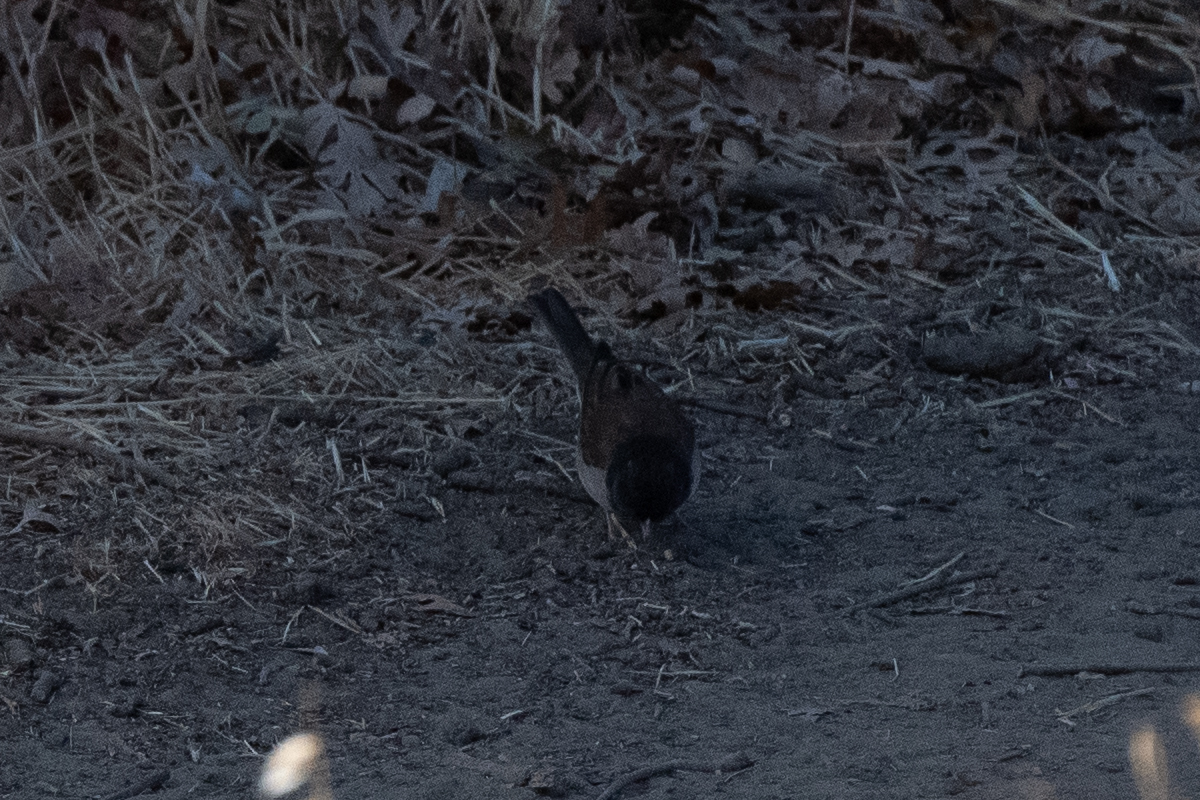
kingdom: Animalia
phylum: Chordata
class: Aves
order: Passeriformes
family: Passerellidae
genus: Junco
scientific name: Junco hyemalis
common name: Dark-eyed junco
